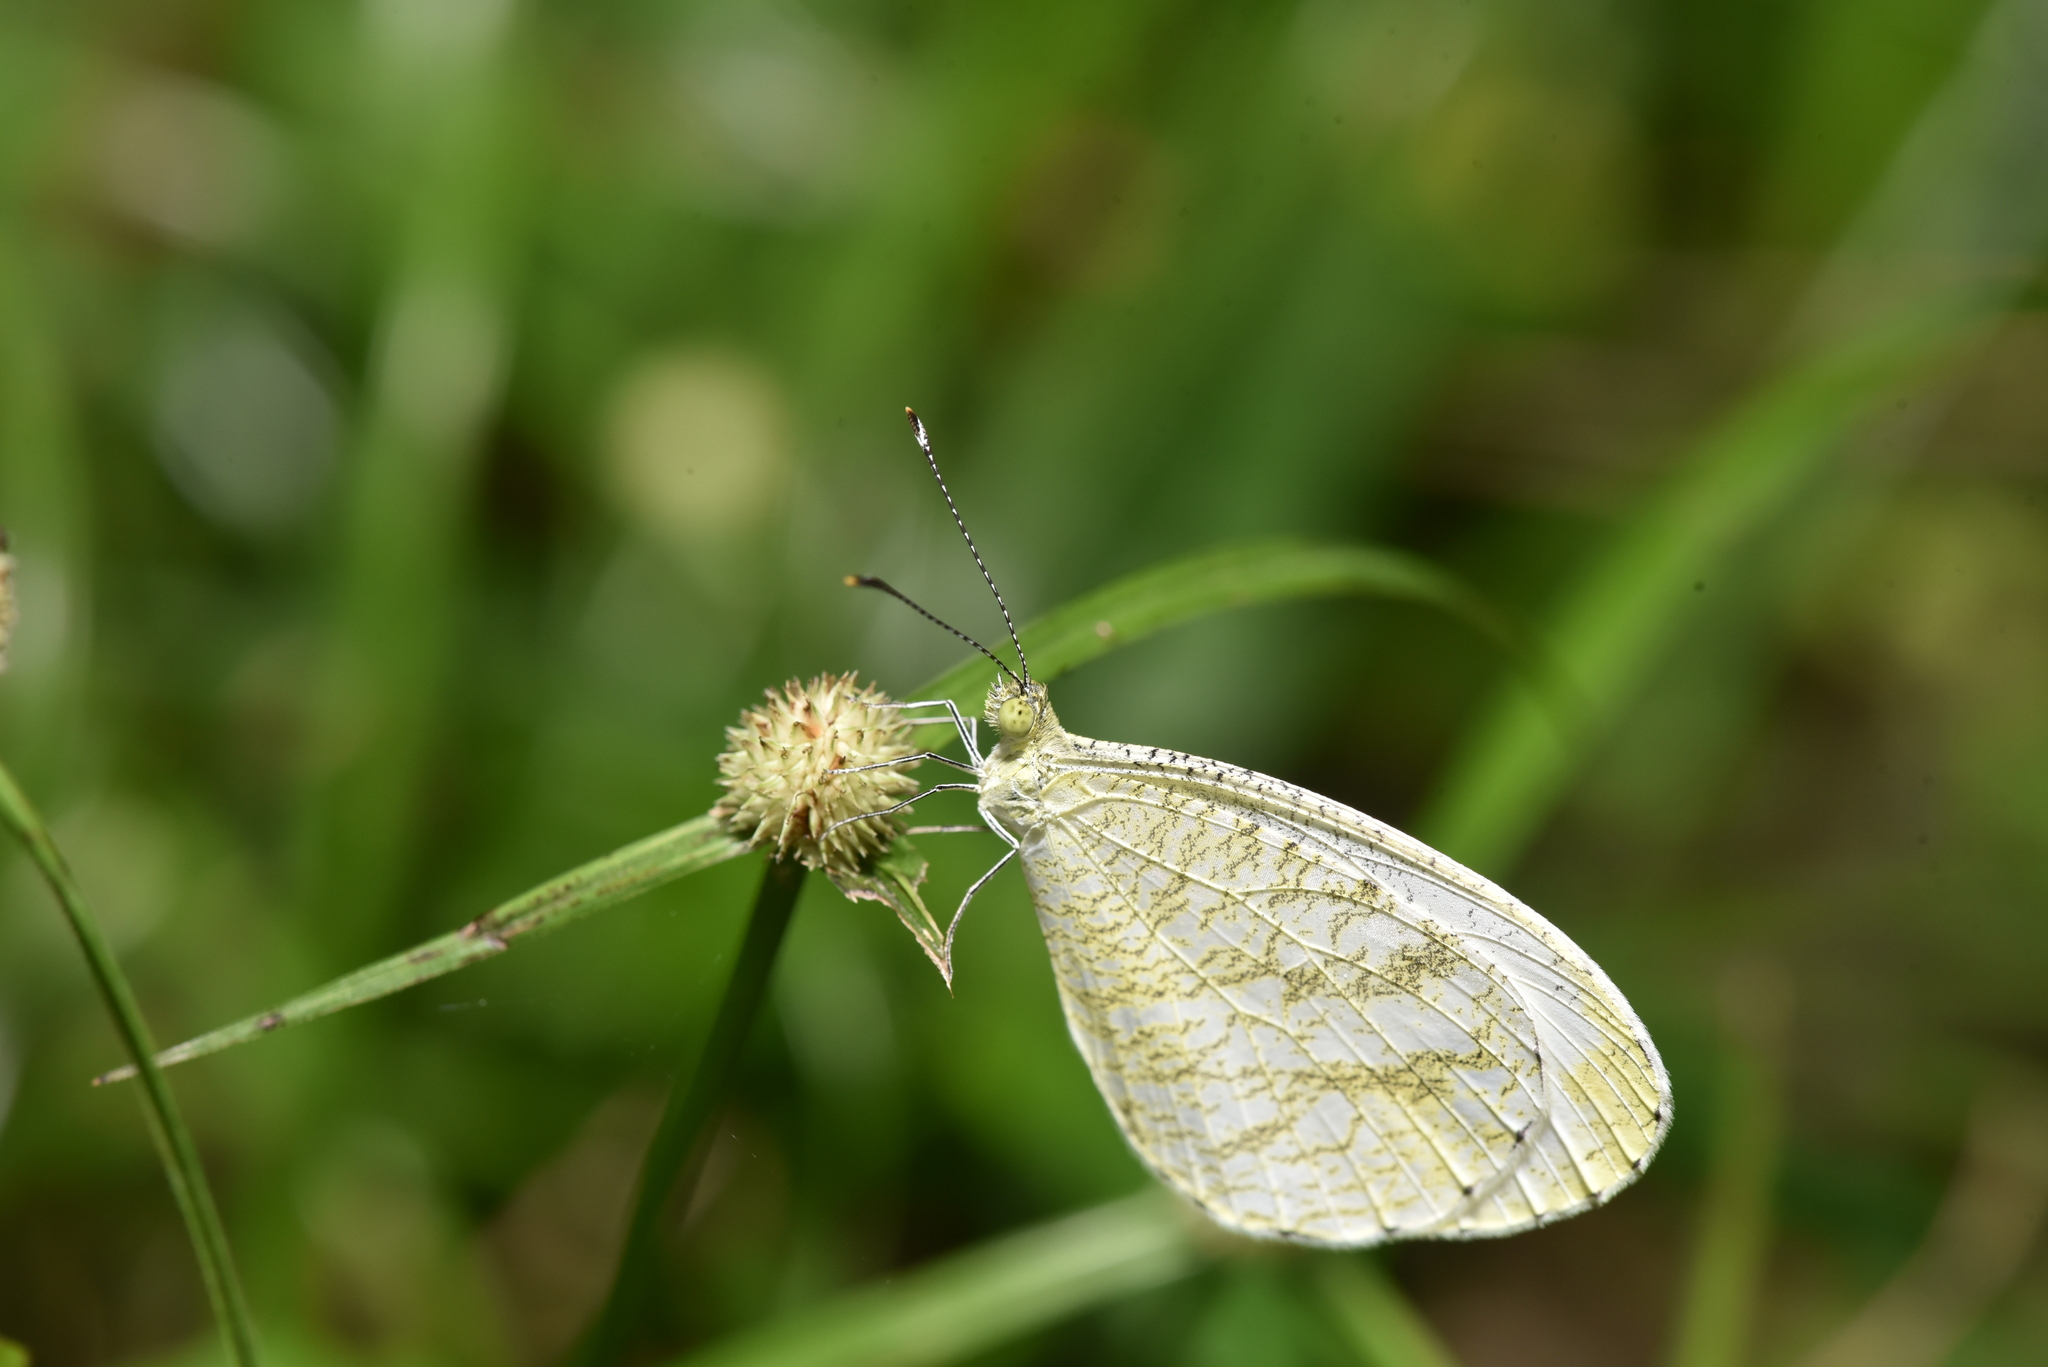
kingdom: Animalia
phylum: Arthropoda
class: Insecta
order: Lepidoptera
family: Pieridae
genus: Leptosia
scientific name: Leptosia nina
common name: Psyche
